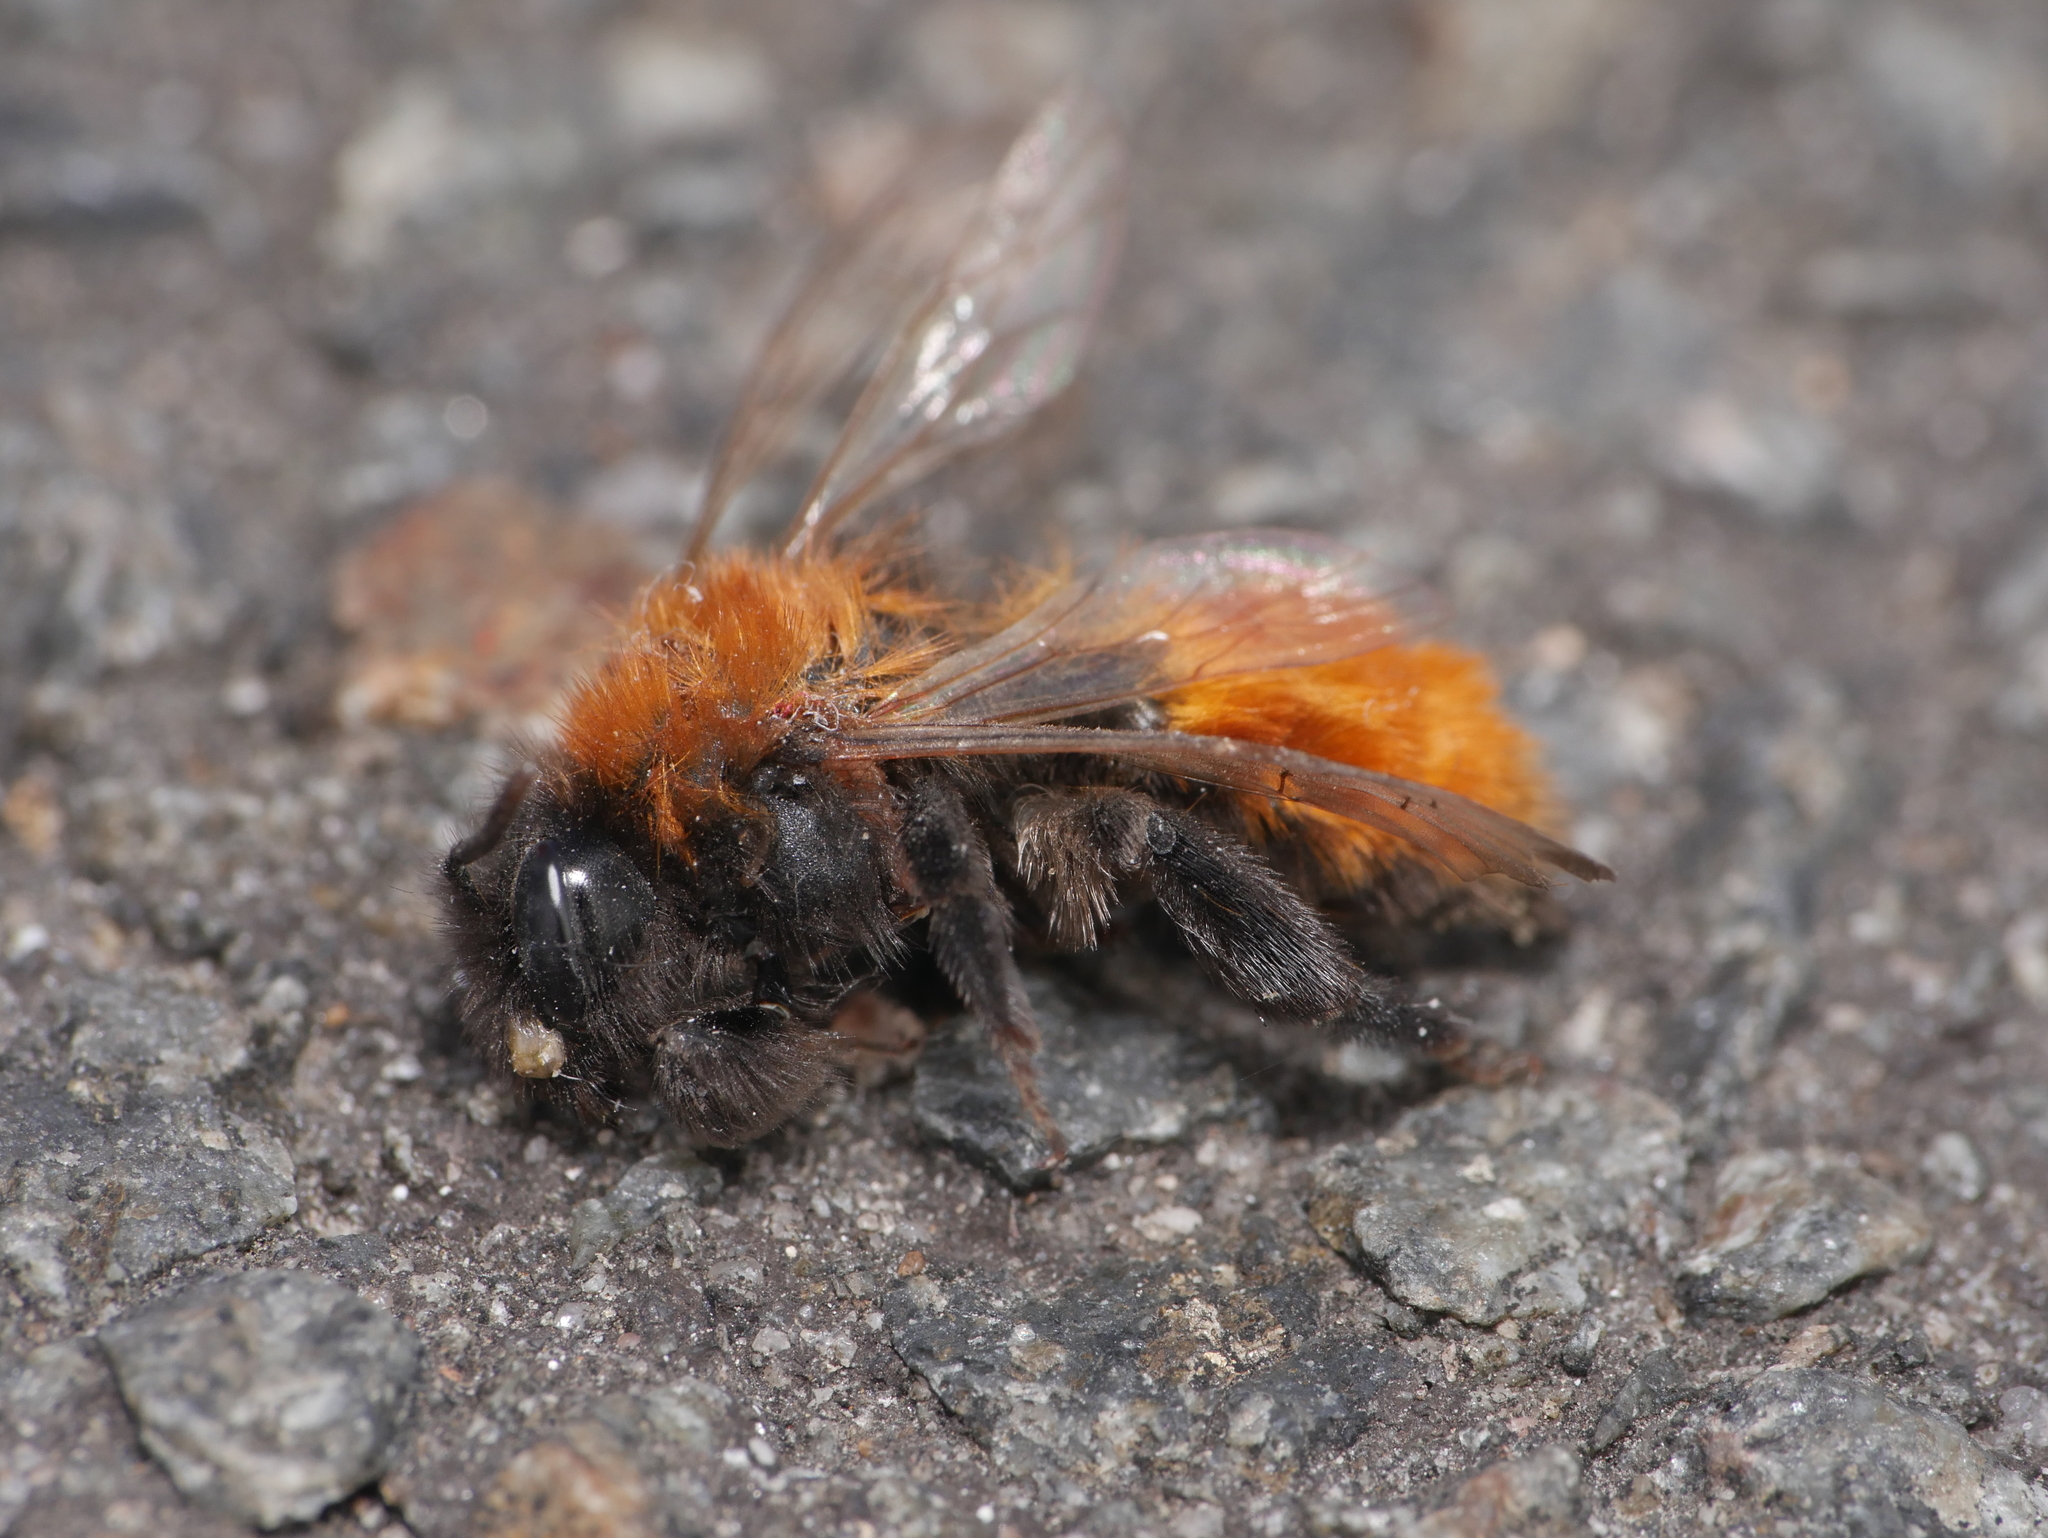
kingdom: Animalia
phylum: Arthropoda
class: Insecta
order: Hymenoptera
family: Andrenidae
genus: Andrena
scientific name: Andrena fulva
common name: Tawny mining bee
